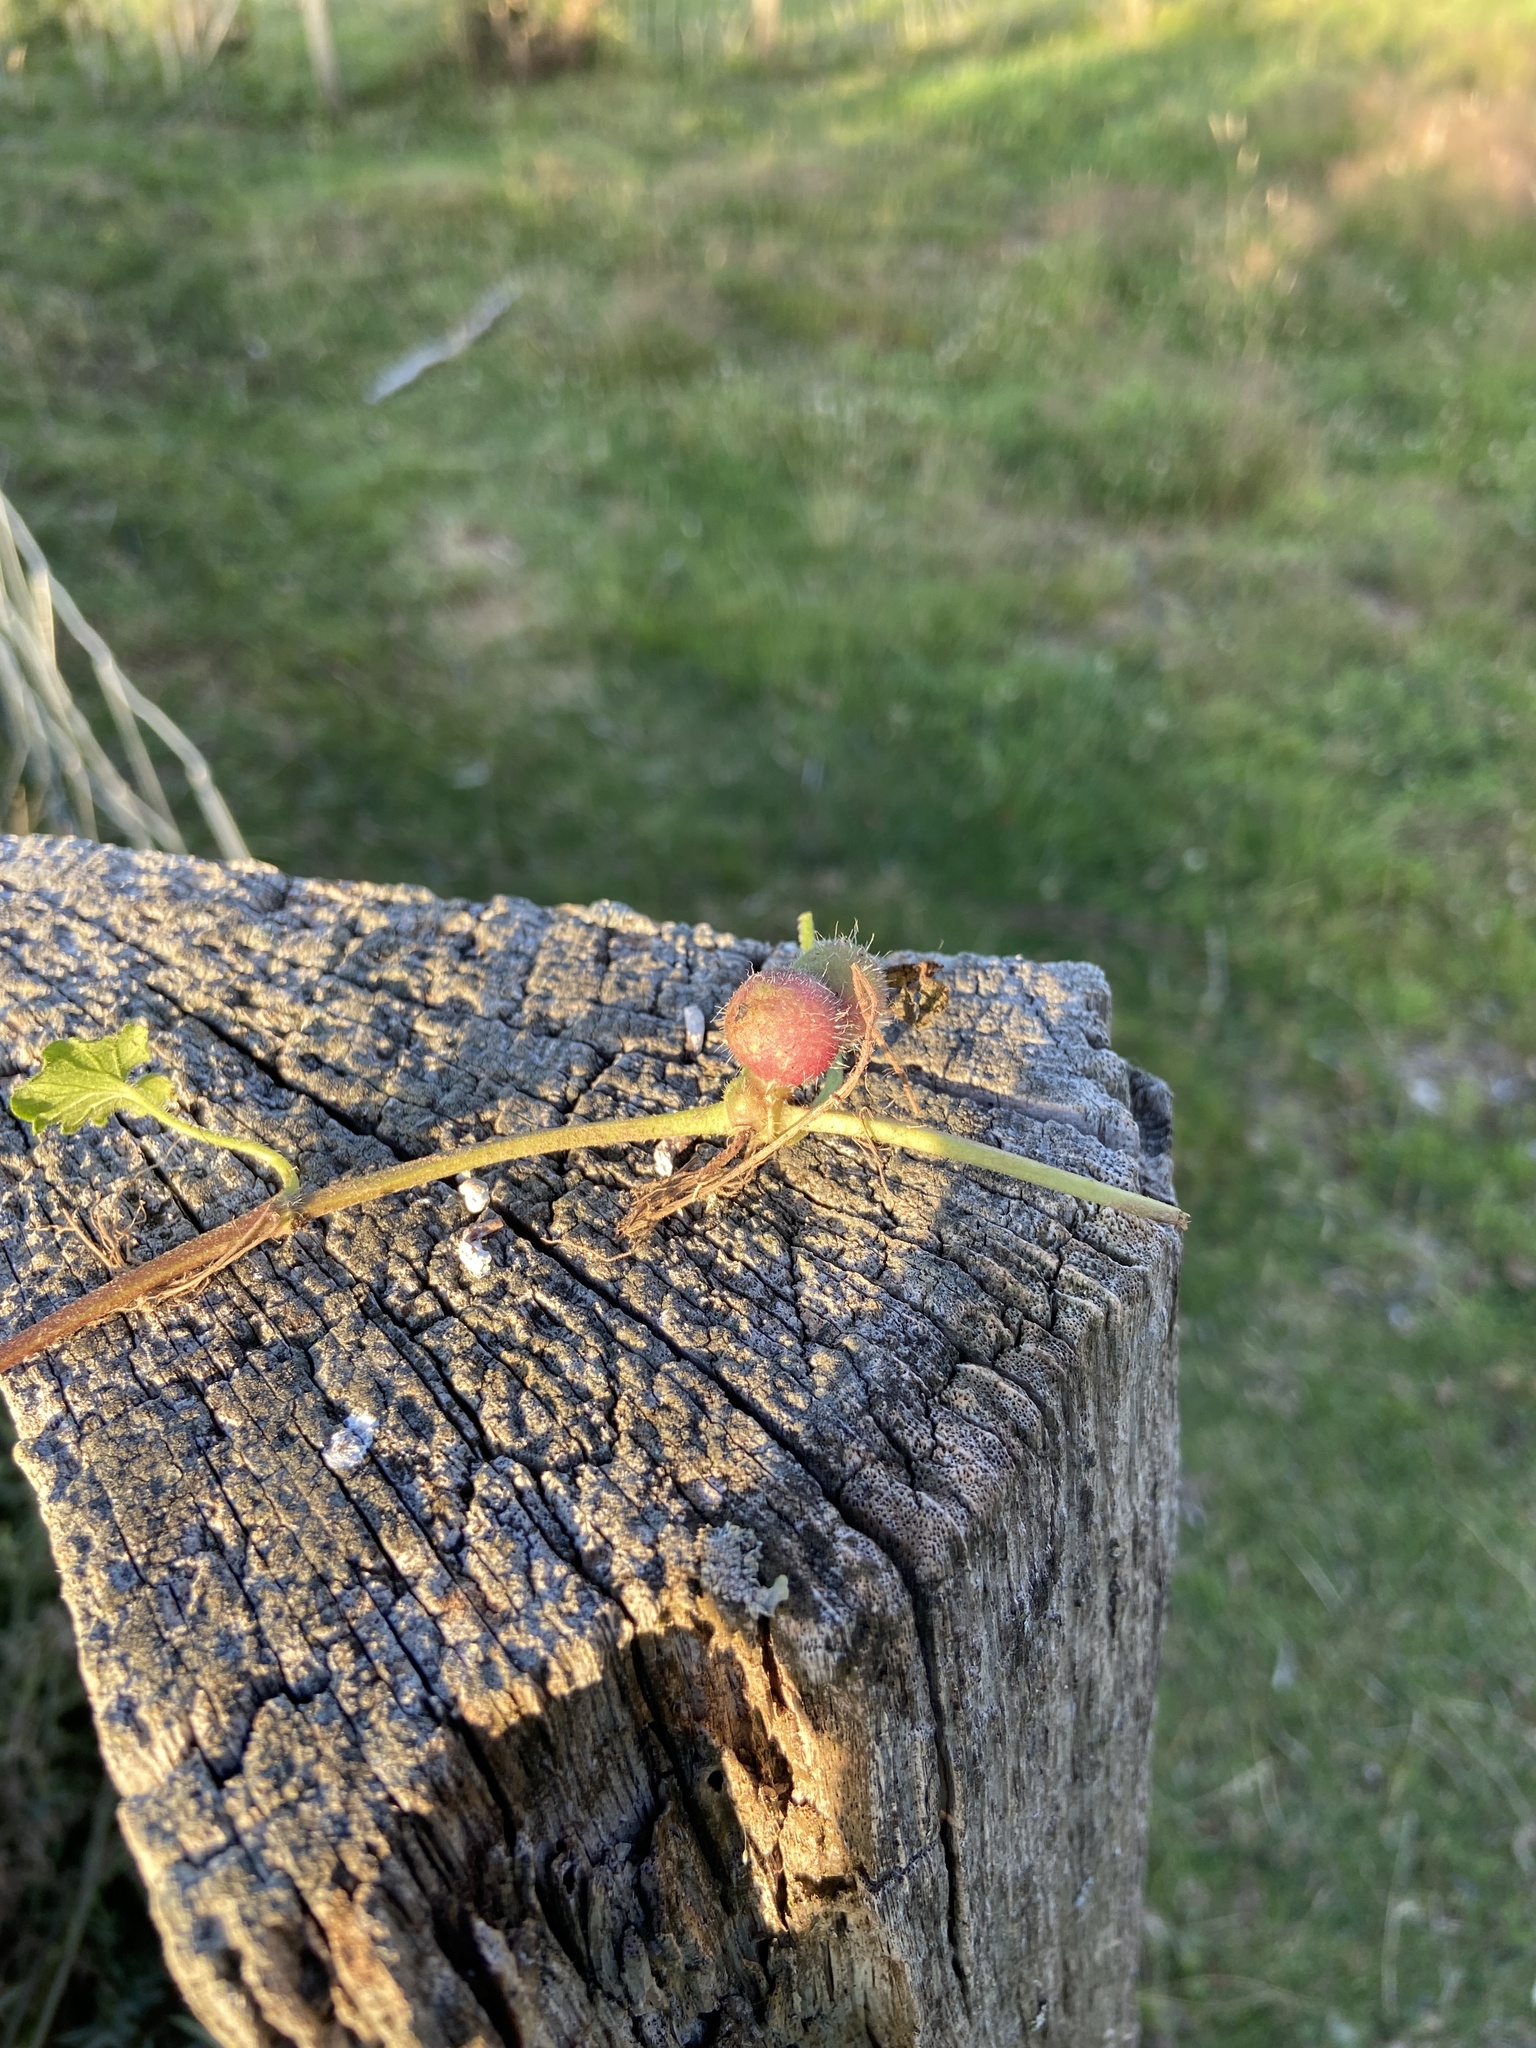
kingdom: Animalia
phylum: Arthropoda
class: Insecta
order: Hymenoptera
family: Cynipidae
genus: Liposthenes
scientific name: Liposthenes glechomae
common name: Gall wasp
